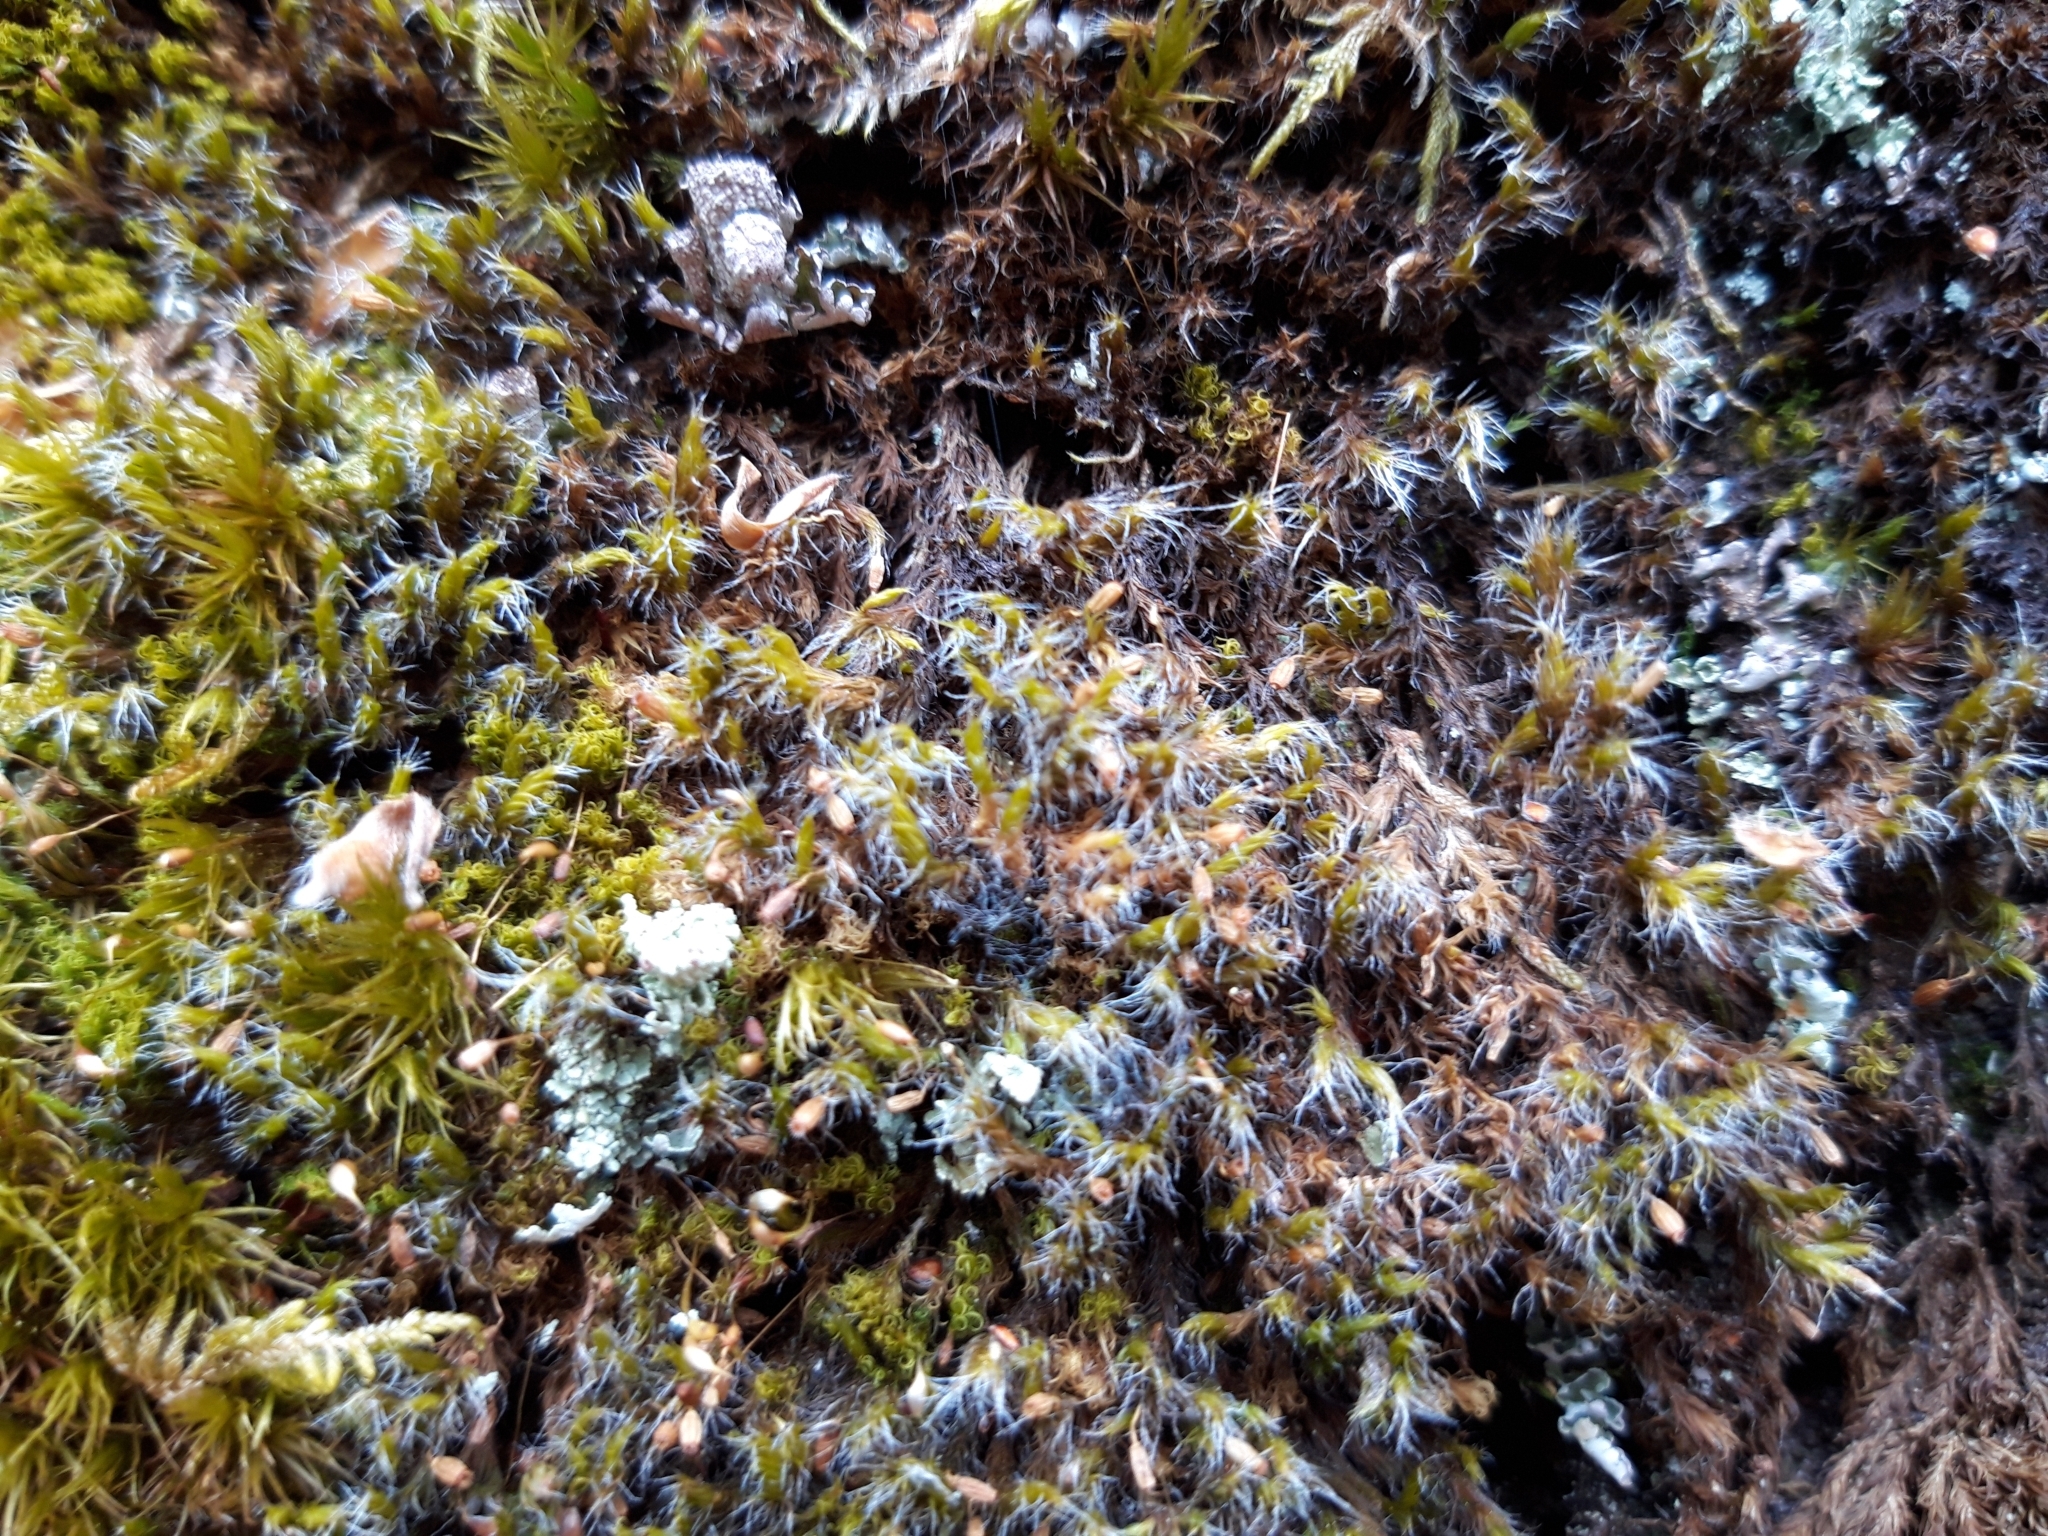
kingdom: Plantae
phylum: Bryophyta
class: Bryopsida
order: Grimmiales
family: Grimmiaceae
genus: Grimmia
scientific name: Grimmia decipiens
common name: Great grimmia
